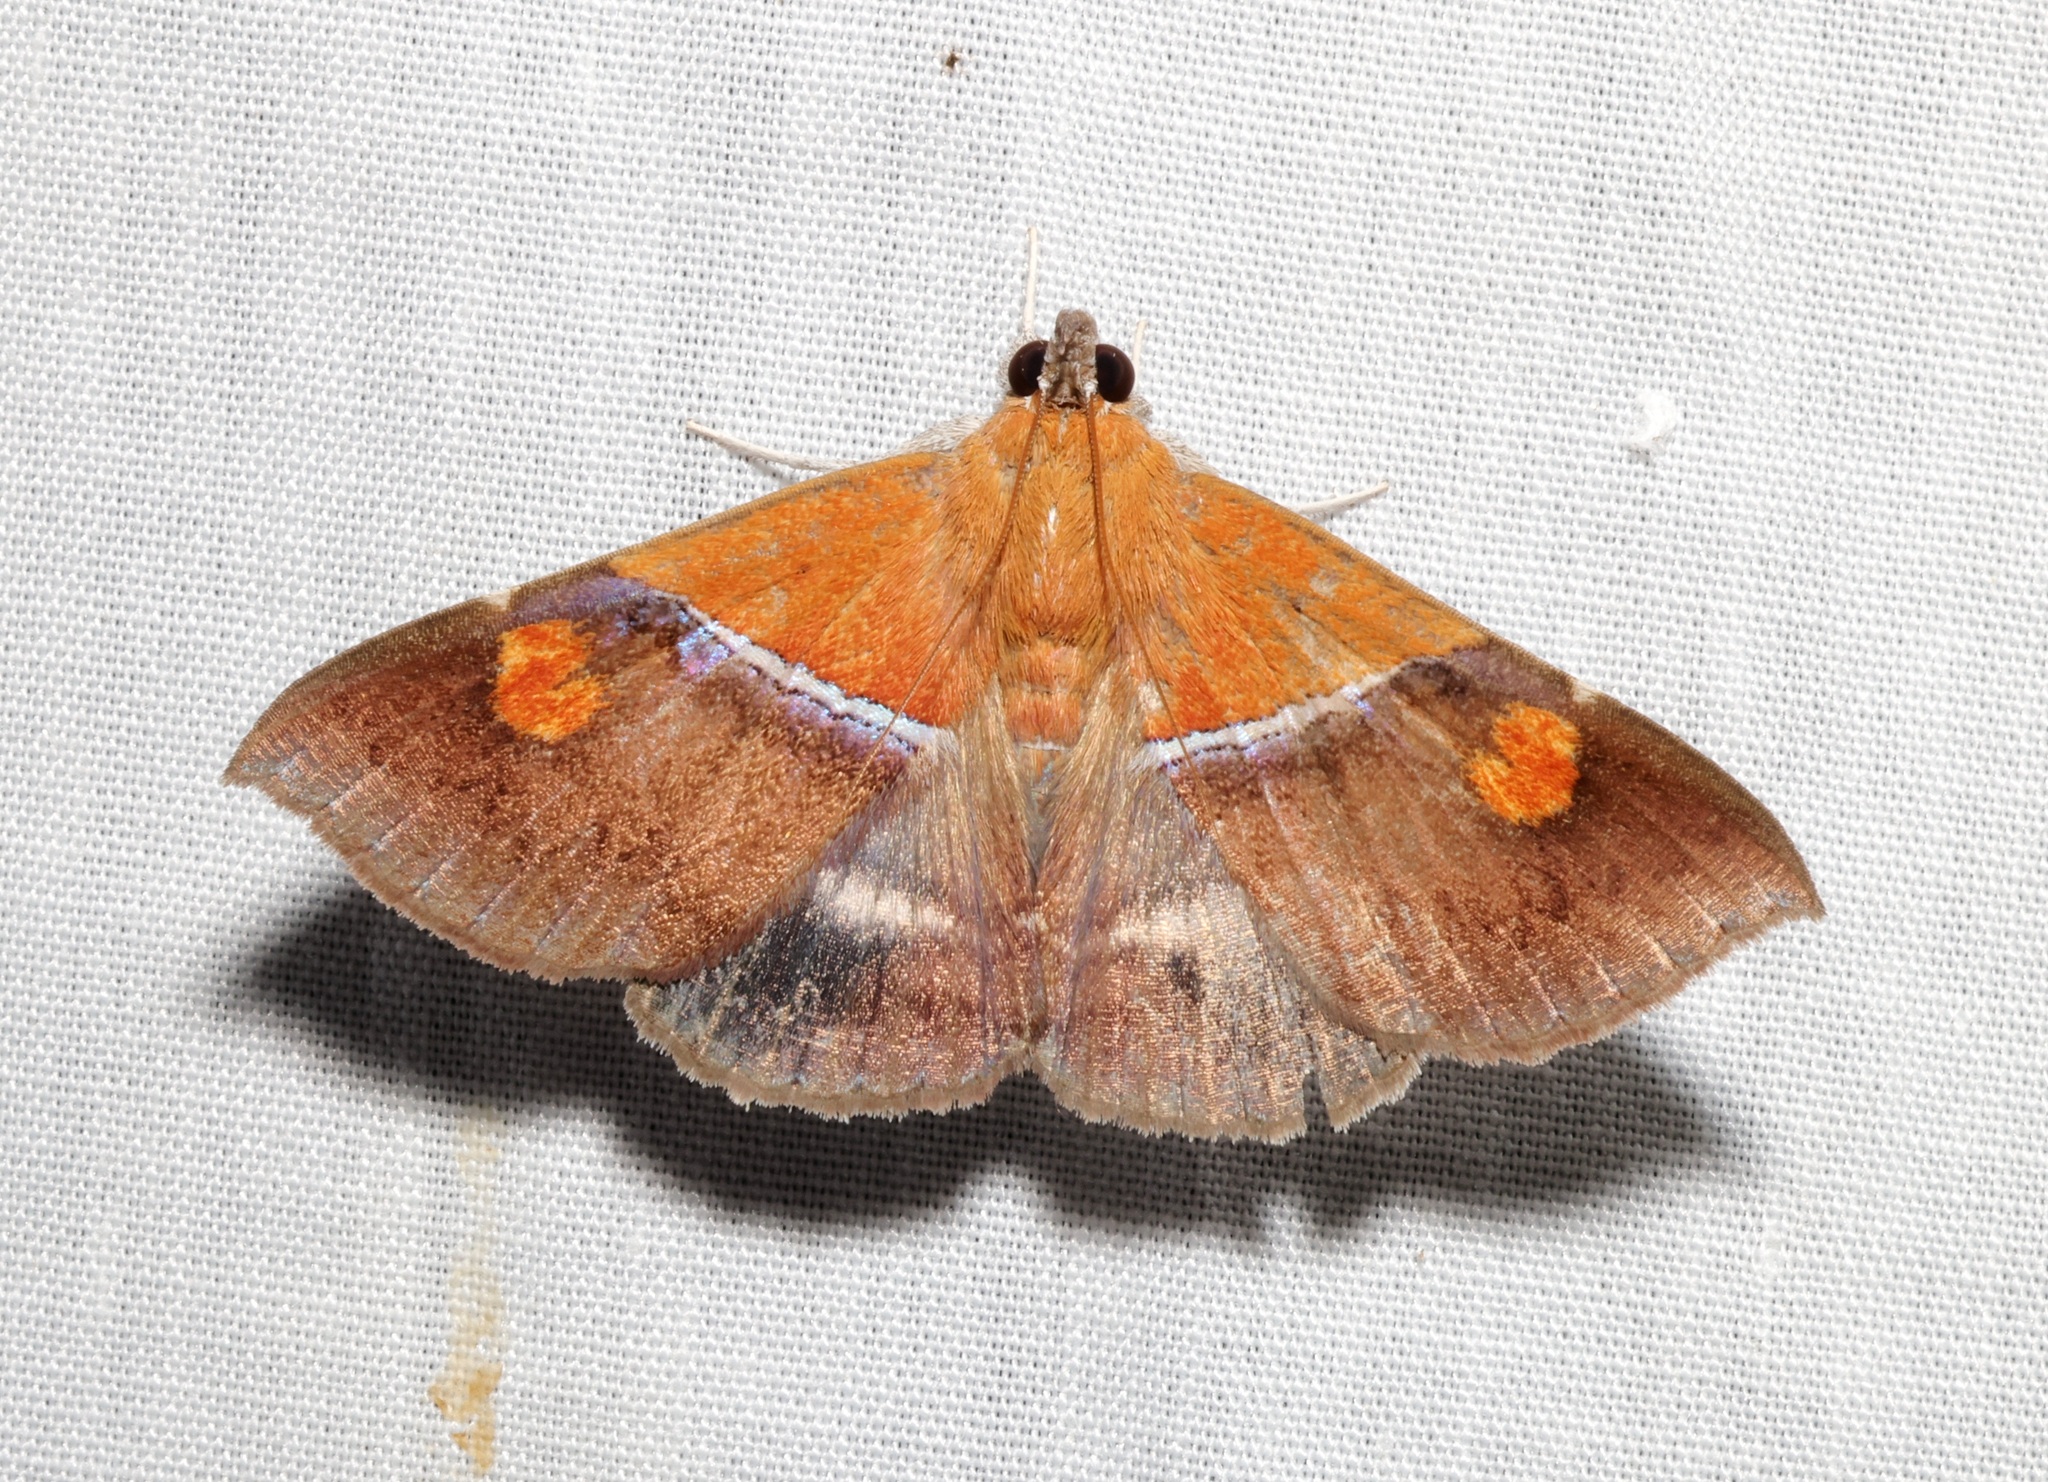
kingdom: Animalia
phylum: Arthropoda
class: Insecta
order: Lepidoptera
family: Erebidae
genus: Sympis
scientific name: Sympis rufibasis
